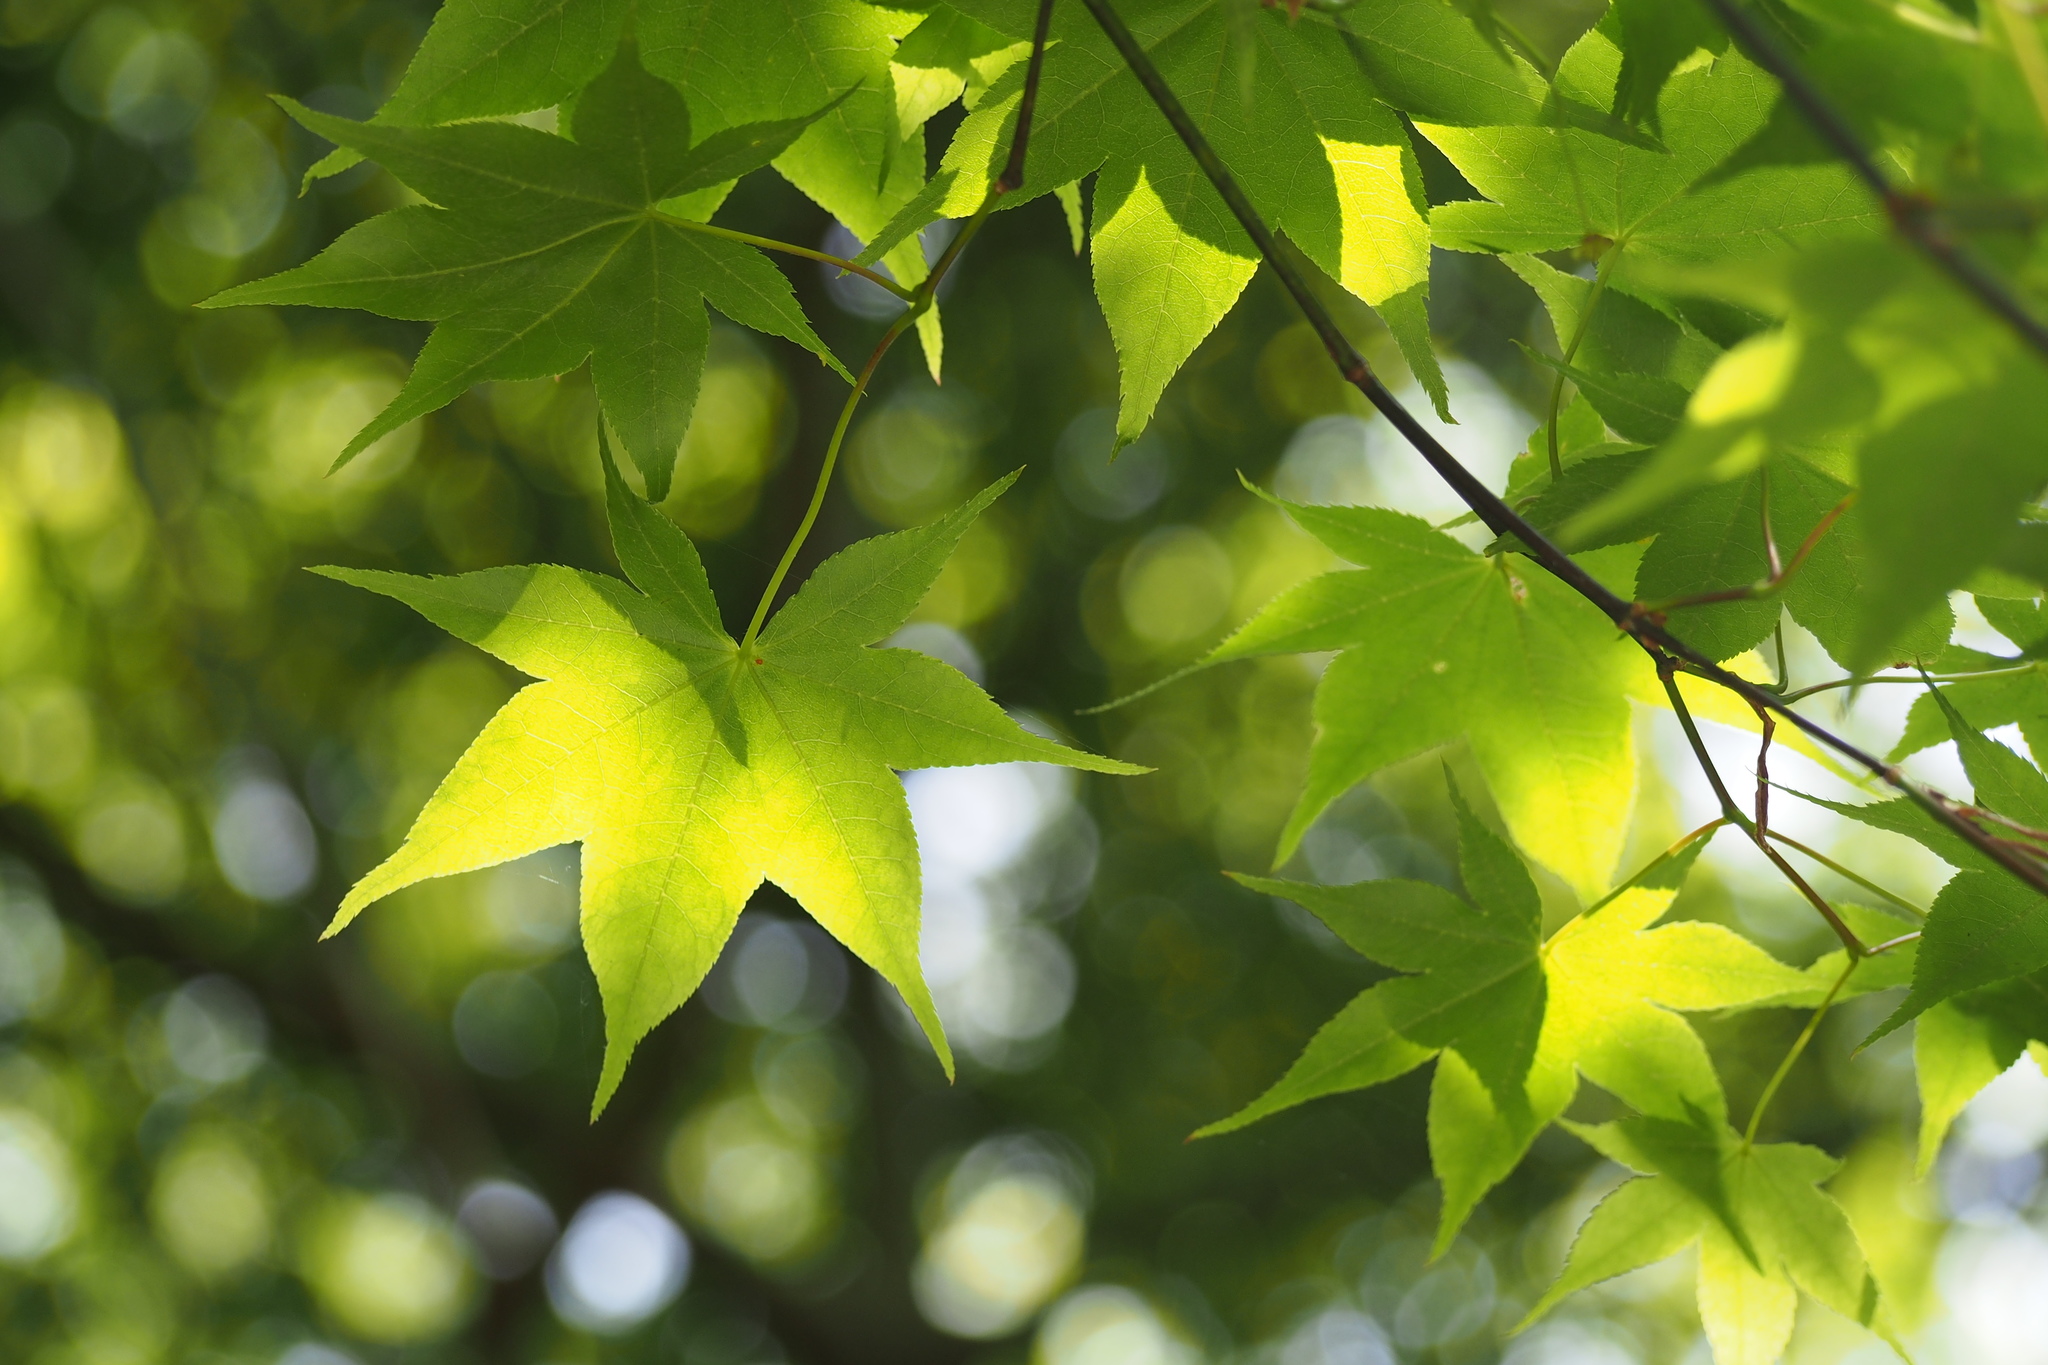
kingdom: Plantae
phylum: Tracheophyta
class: Magnoliopsida
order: Sapindales
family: Sapindaceae
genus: Acer
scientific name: Acer palmatum
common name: Japanese maple
